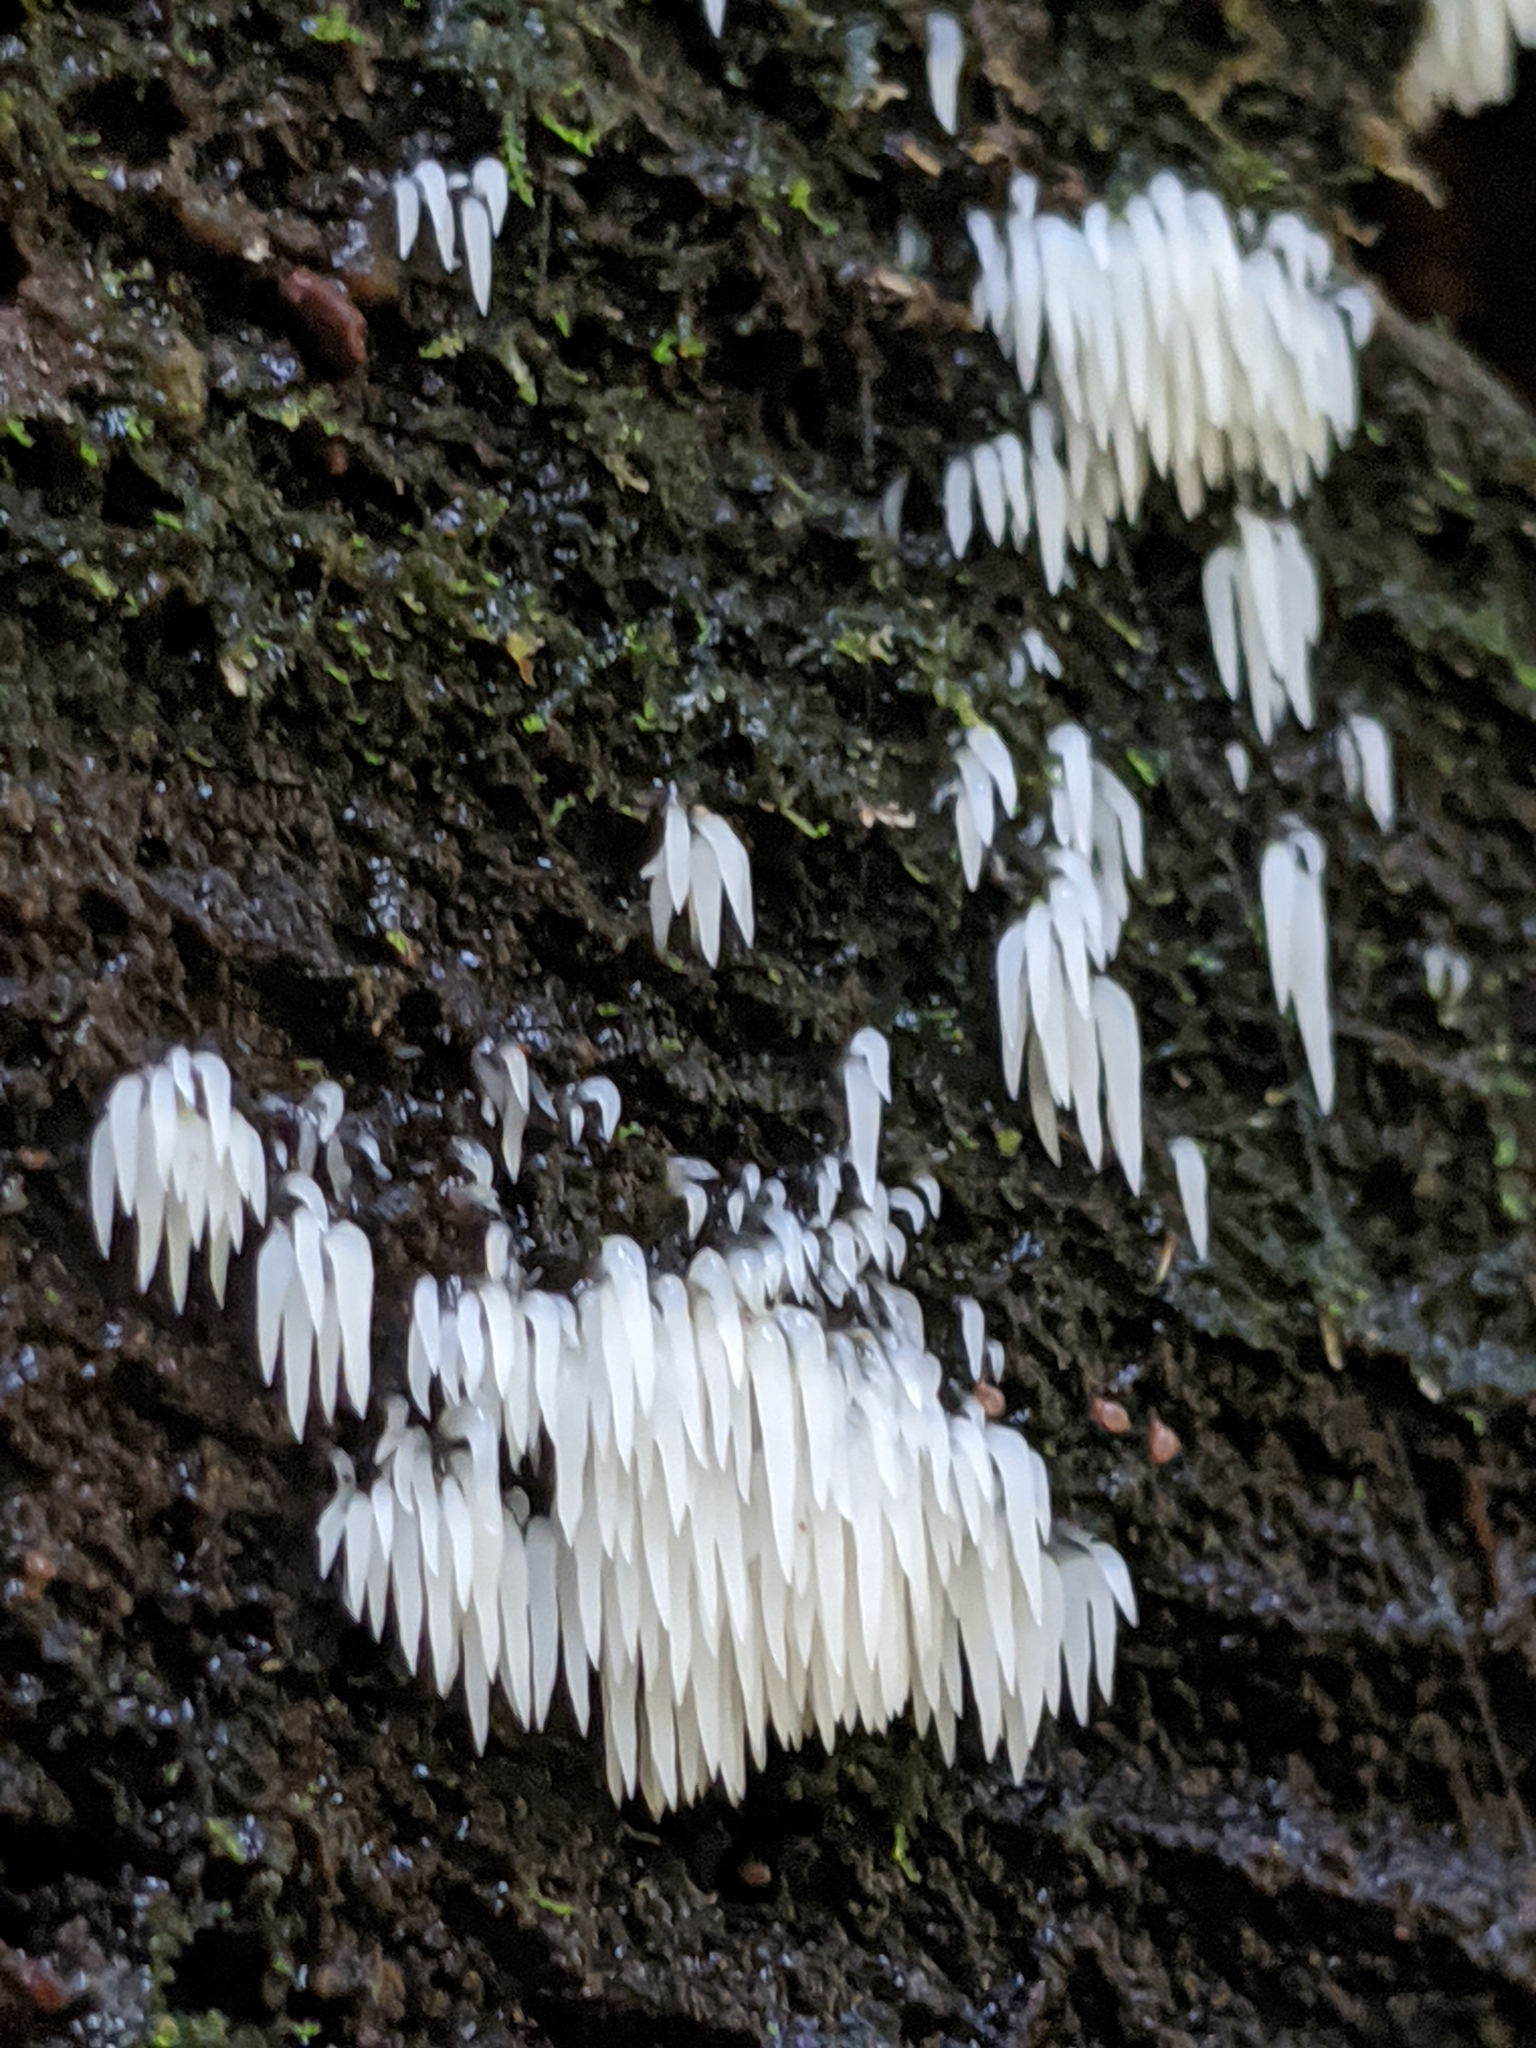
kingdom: Fungi
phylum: Basidiomycota
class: Agaricomycetes
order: Agaricales
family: Clavariaceae
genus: Mucronella
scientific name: Mucronella calva
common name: Swarming spine
